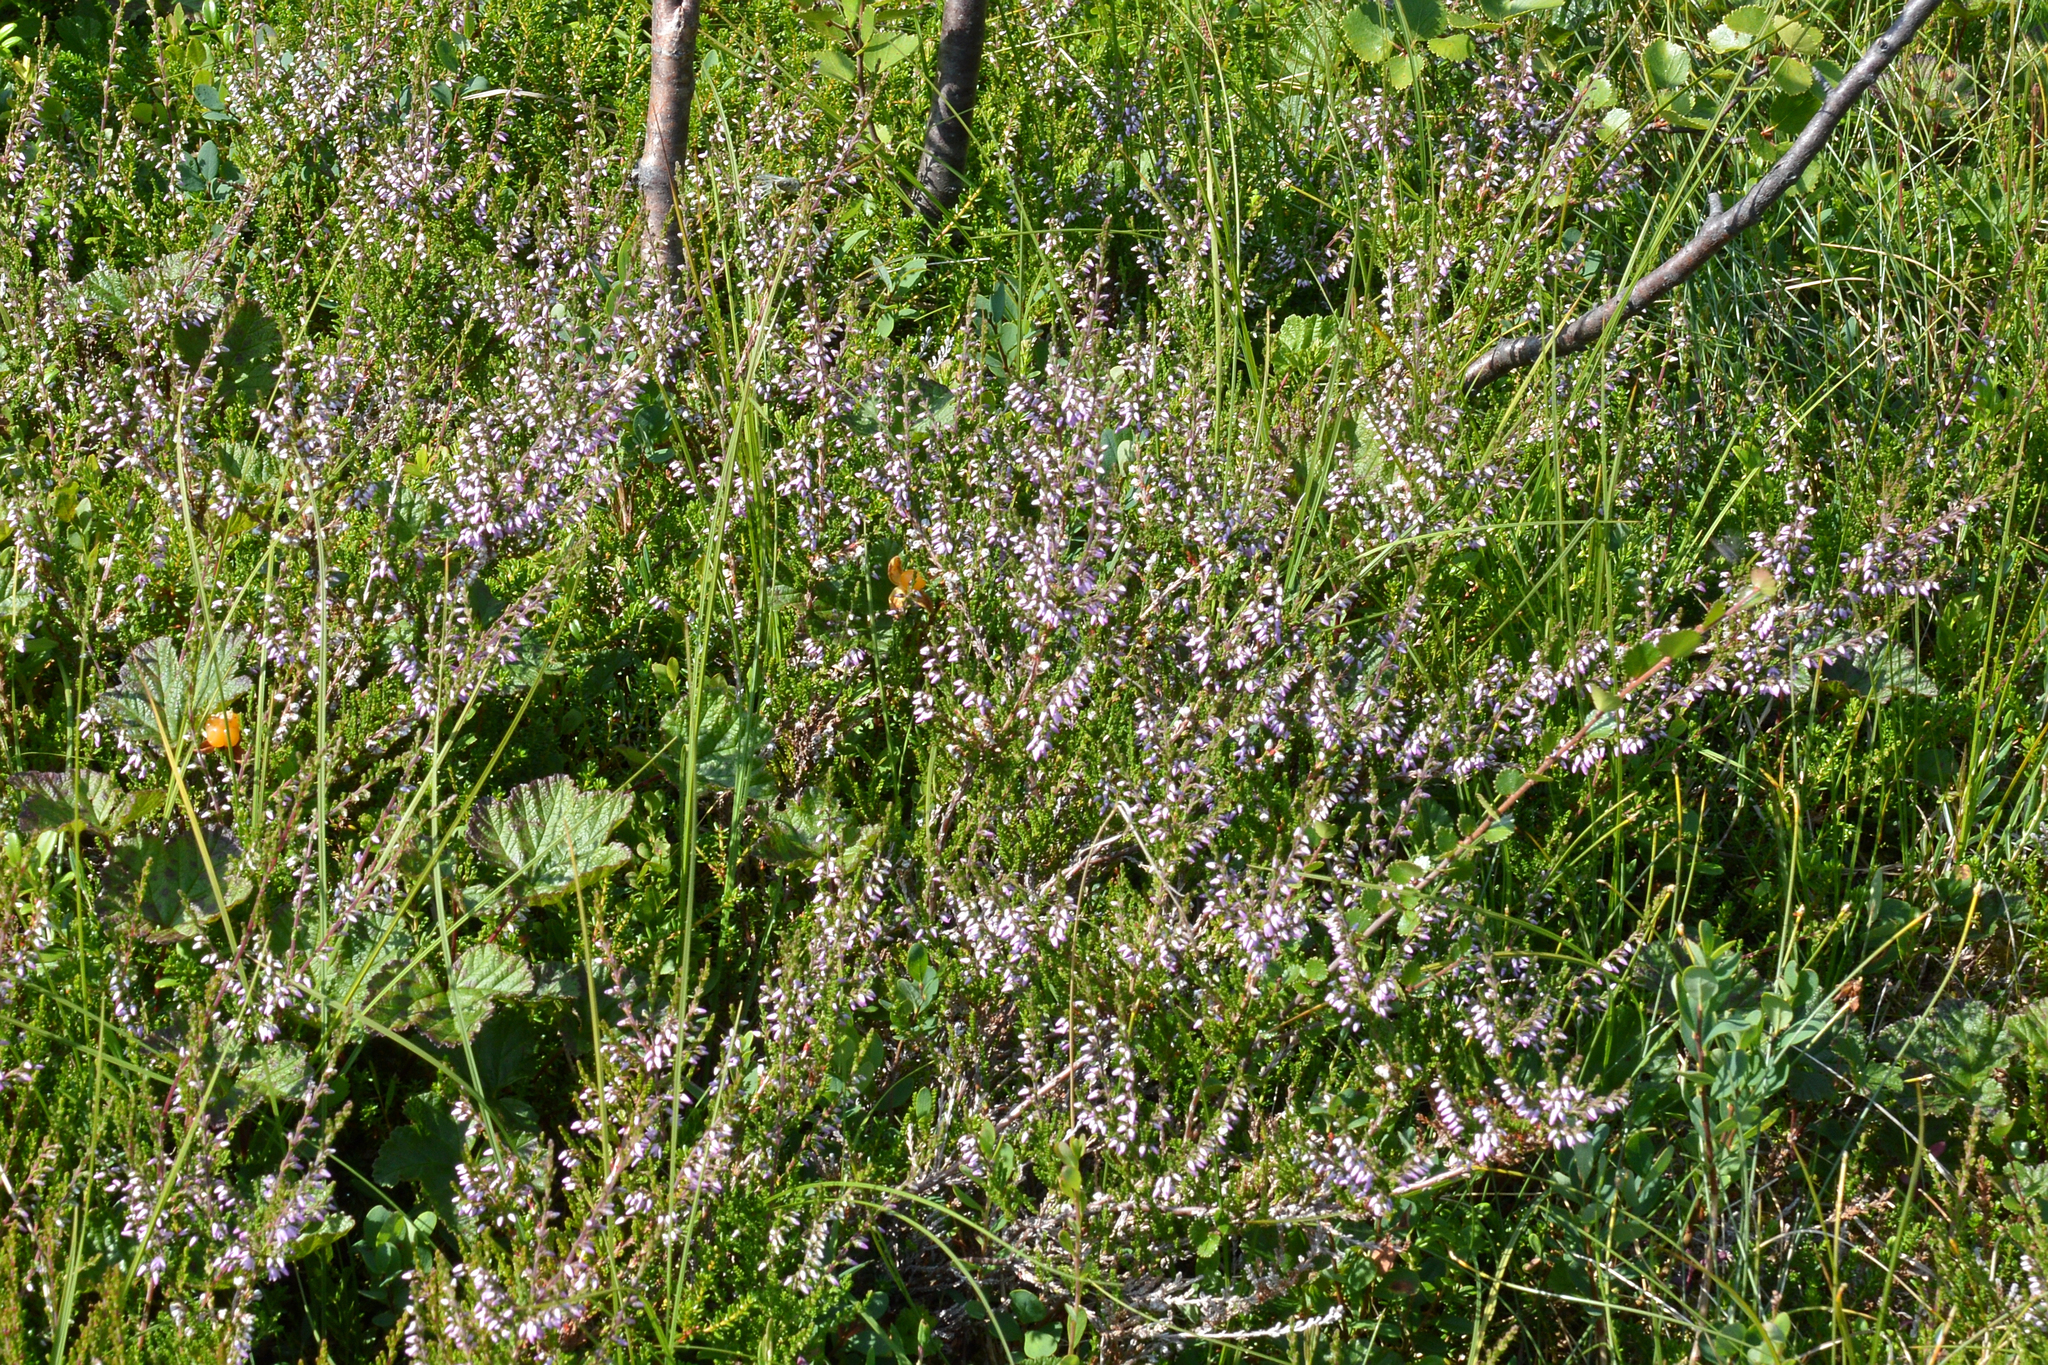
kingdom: Plantae
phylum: Tracheophyta
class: Magnoliopsida
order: Ericales
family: Ericaceae
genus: Calluna
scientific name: Calluna vulgaris
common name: Heather
